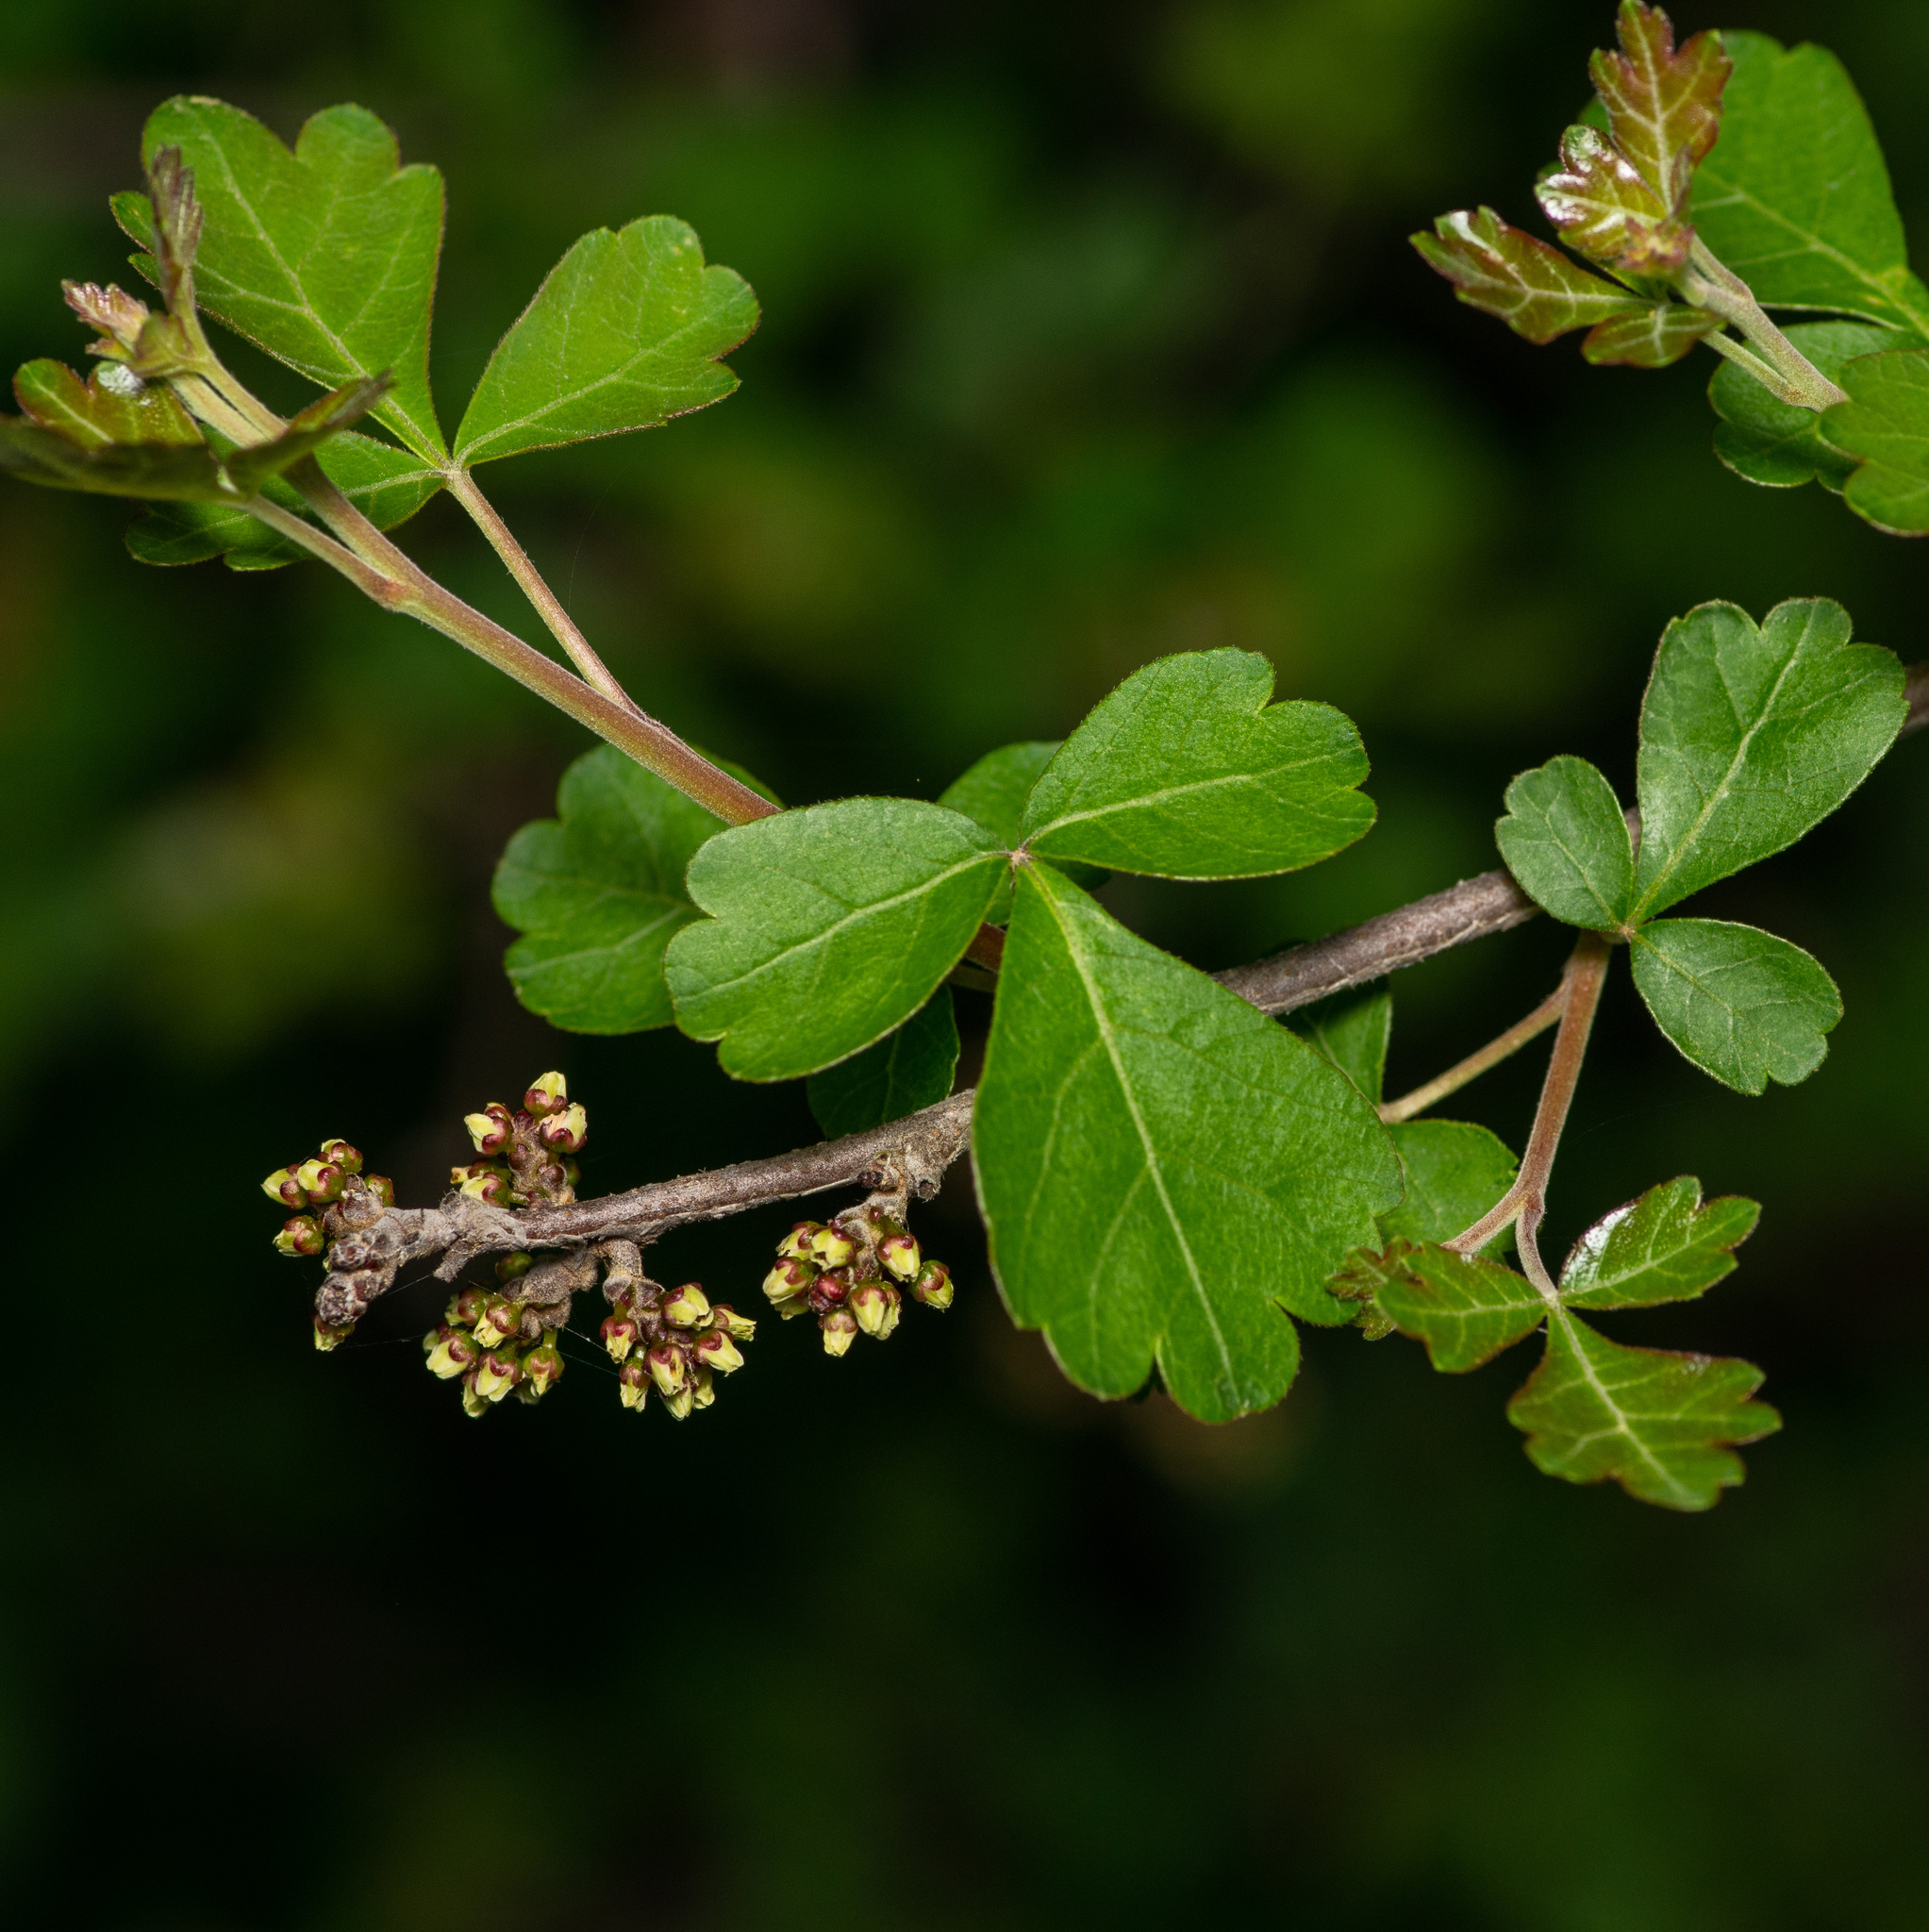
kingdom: Plantae
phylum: Tracheophyta
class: Magnoliopsida
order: Sapindales
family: Anacardiaceae
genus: Rhus
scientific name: Rhus trilobata
